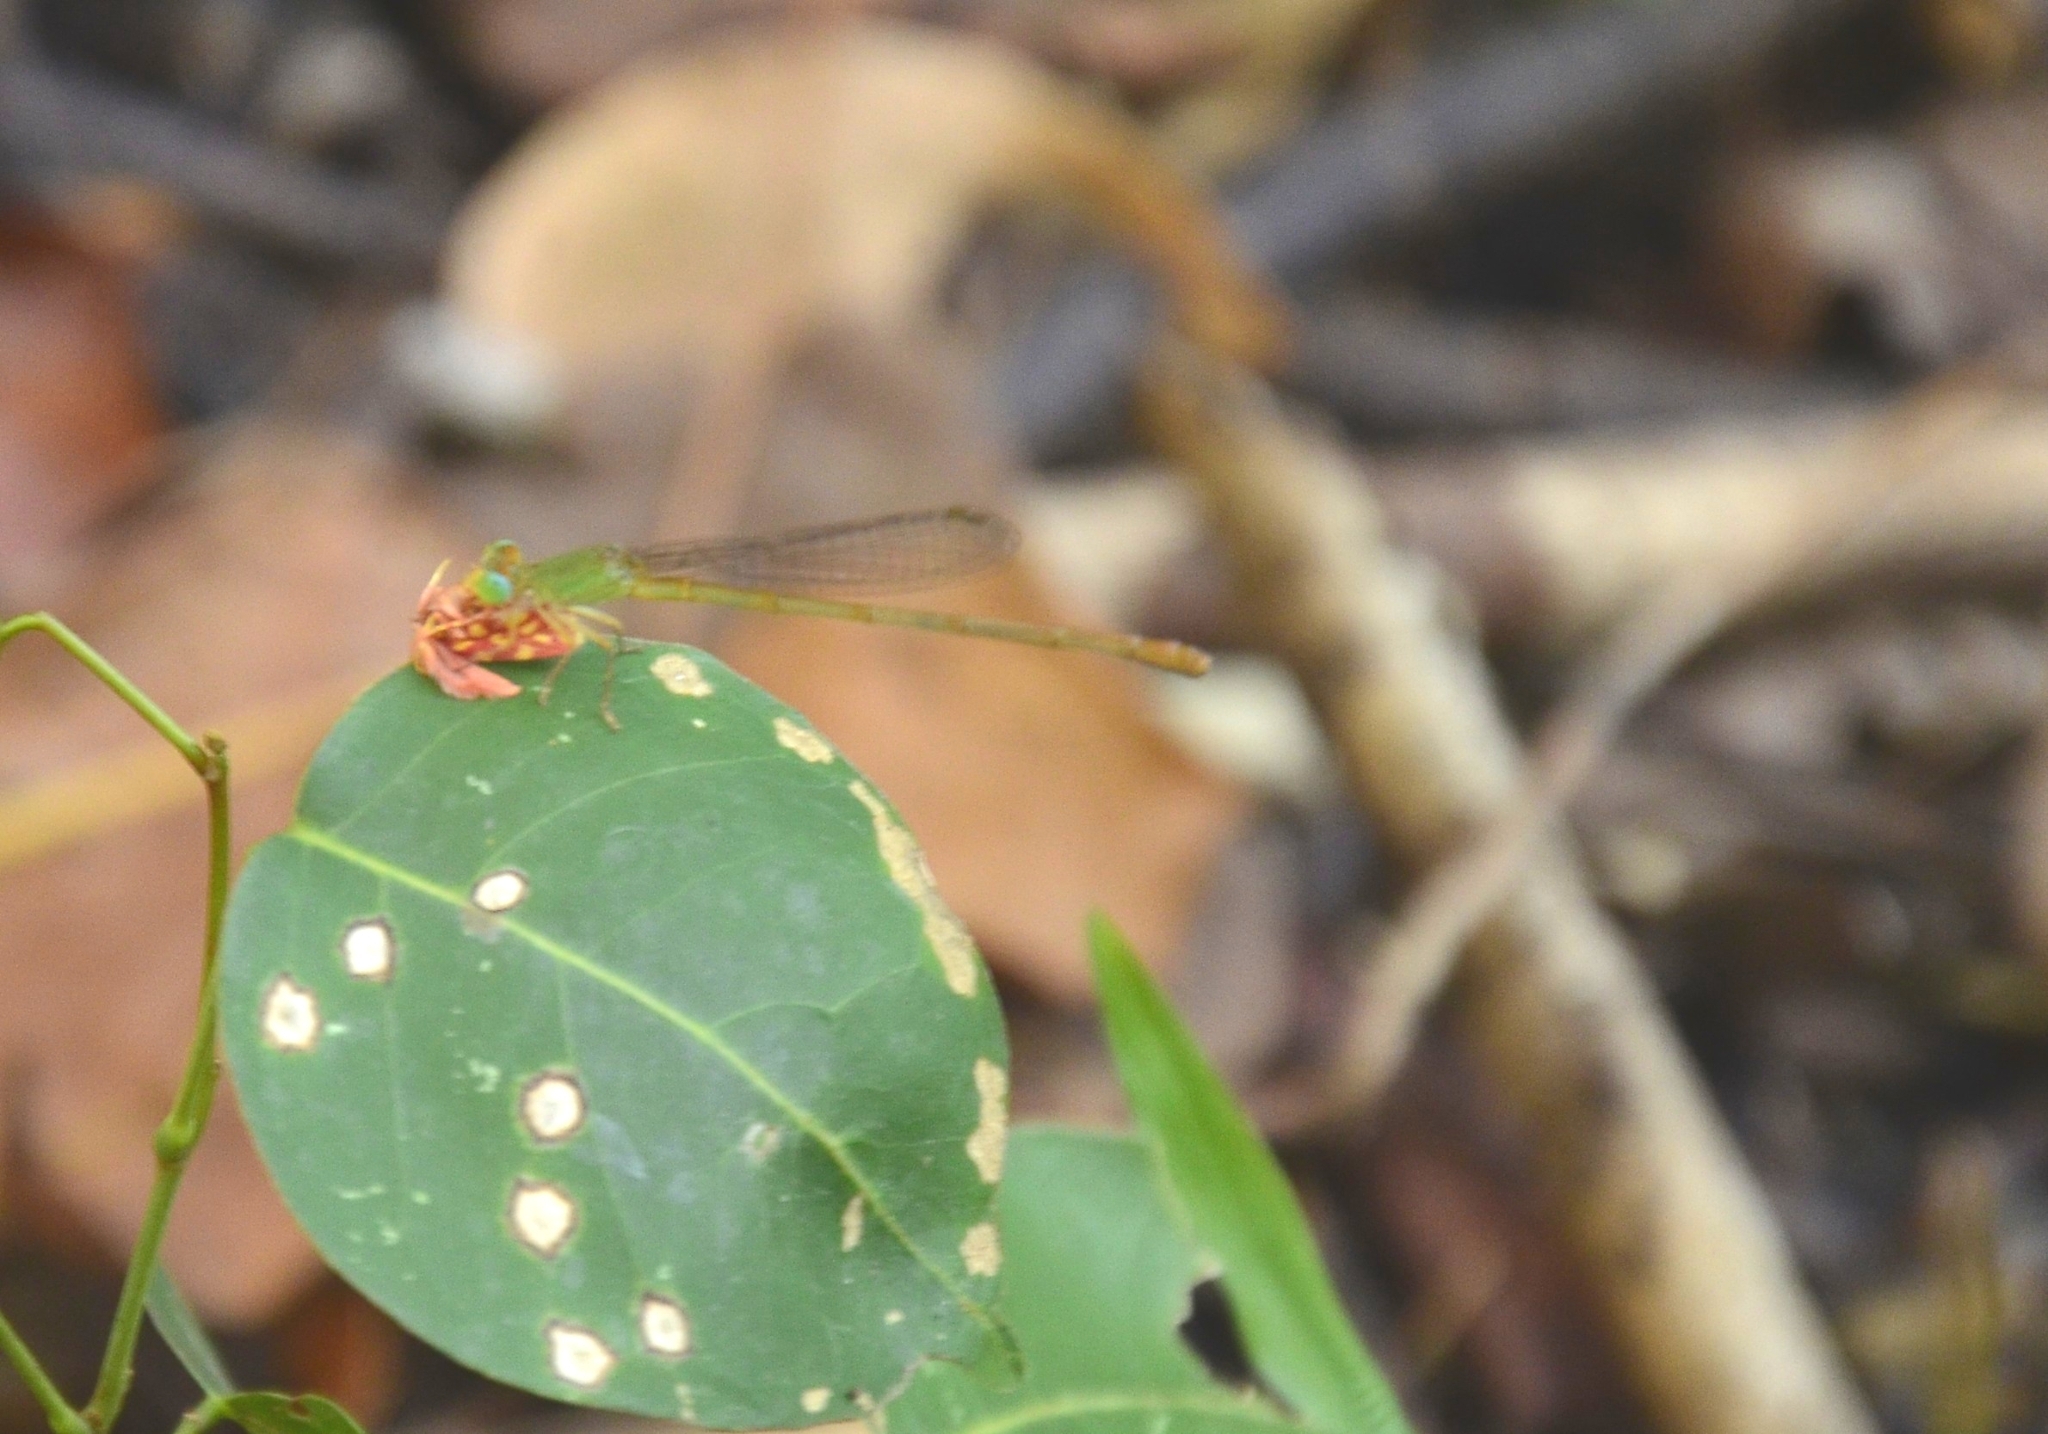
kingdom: Animalia
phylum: Arthropoda
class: Insecta
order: Odonata
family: Coenagrionidae
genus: Ceriagrion
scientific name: Ceriagrion coromandelianum
